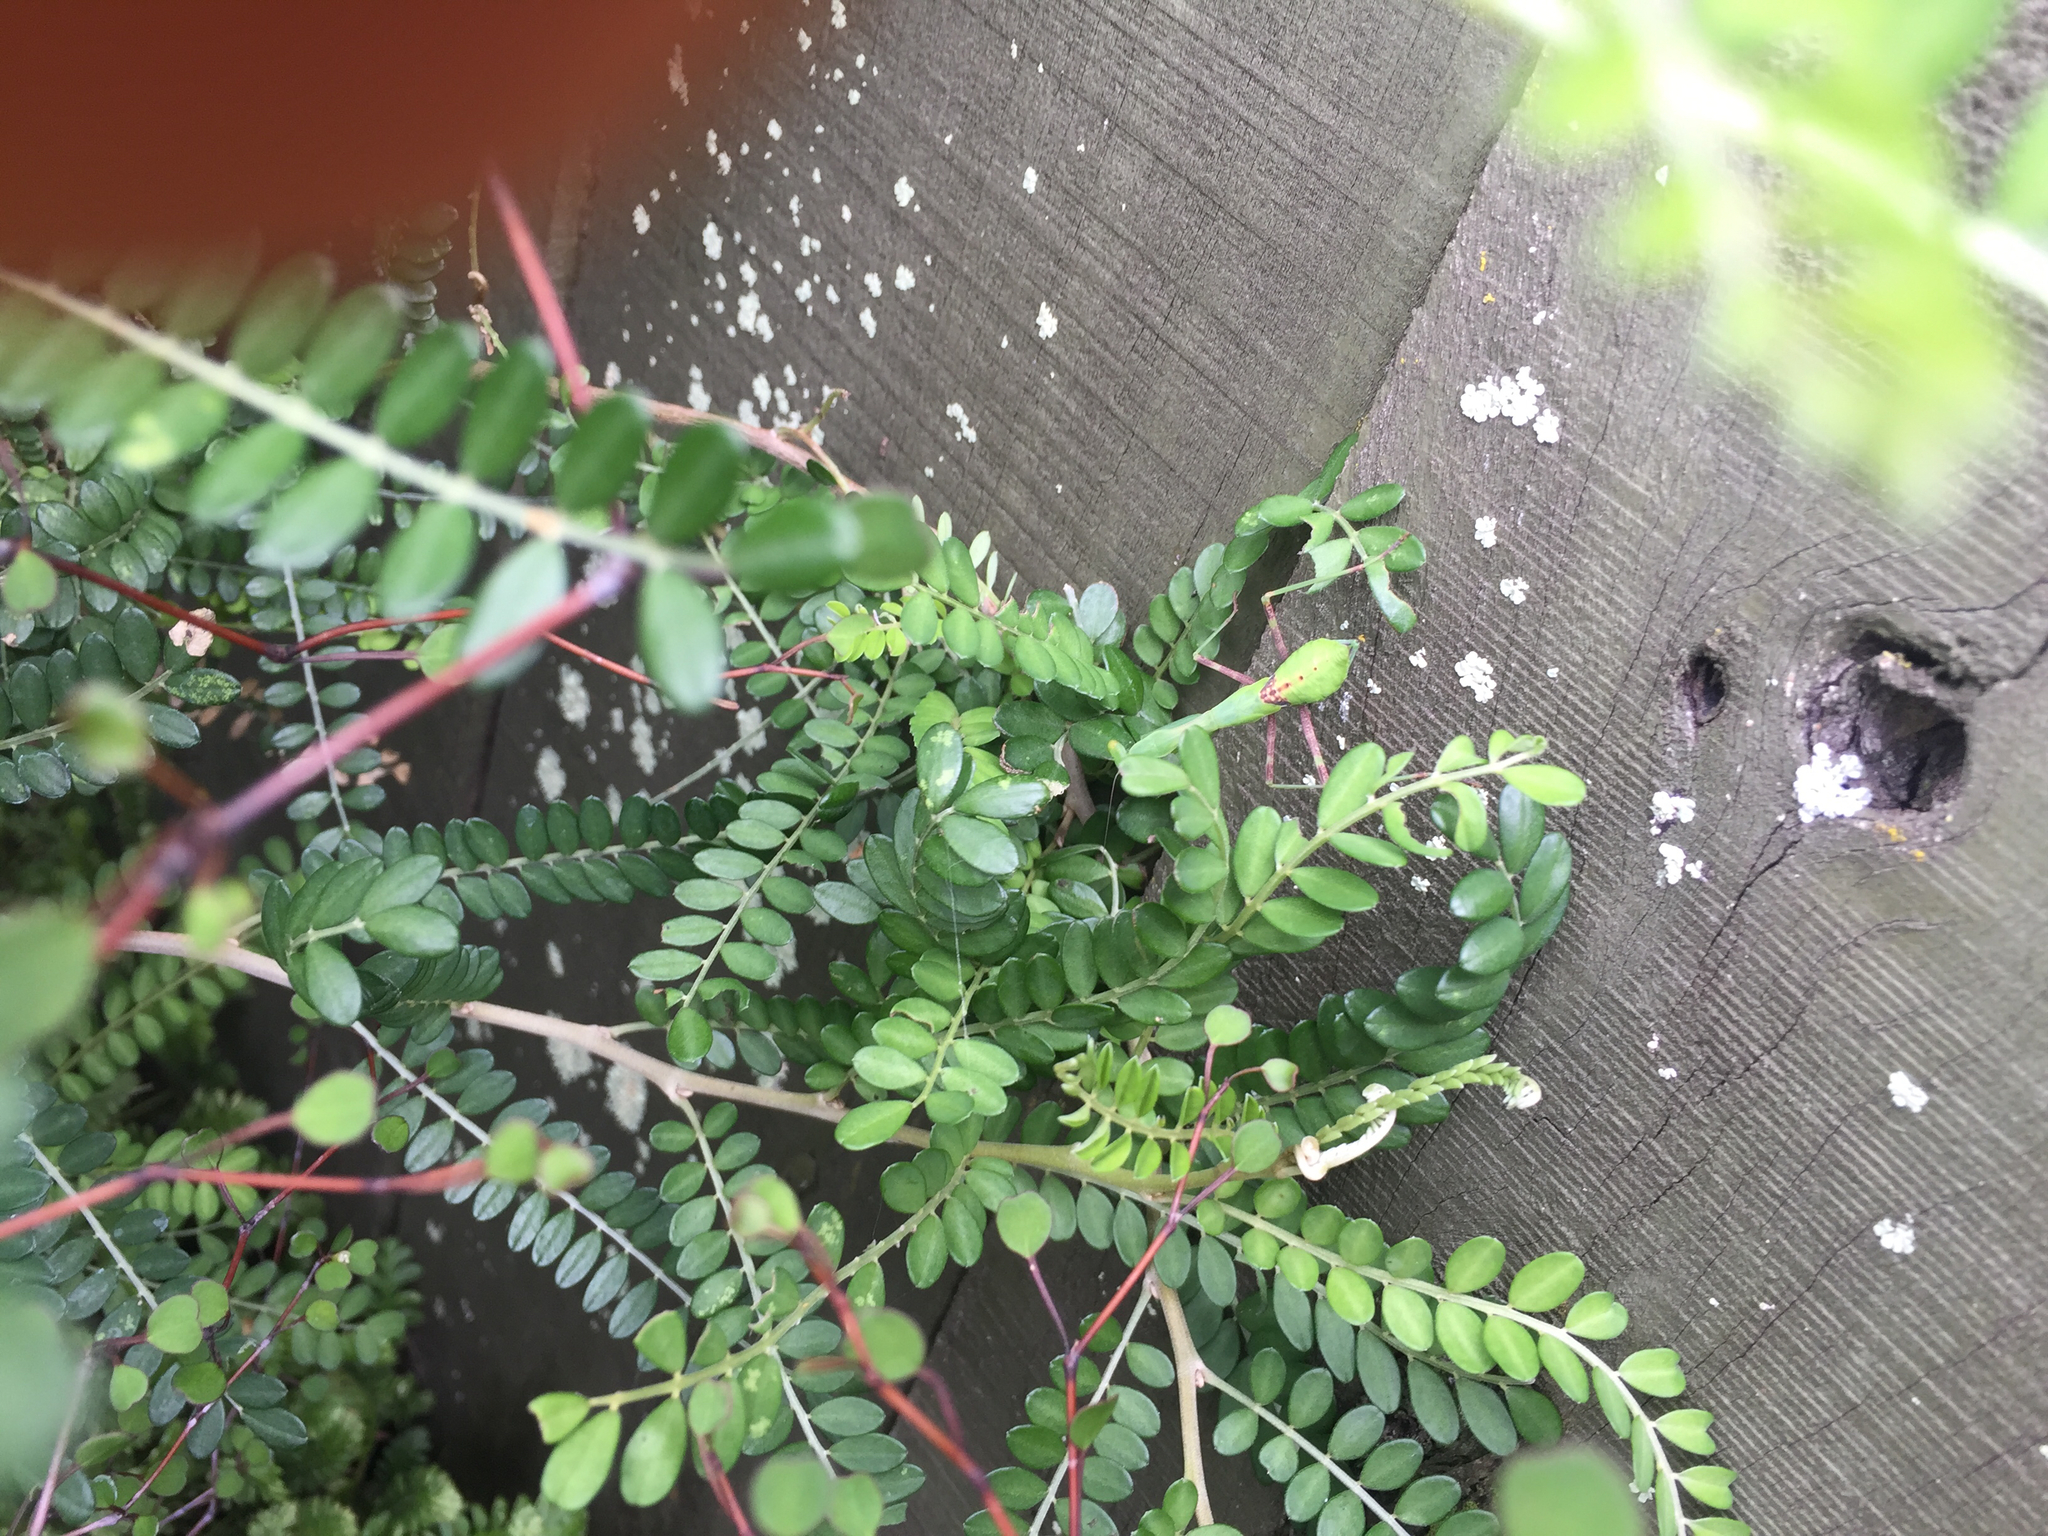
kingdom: Animalia
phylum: Arthropoda
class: Insecta
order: Mantodea
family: Miomantidae
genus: Miomantis
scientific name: Miomantis caffra
